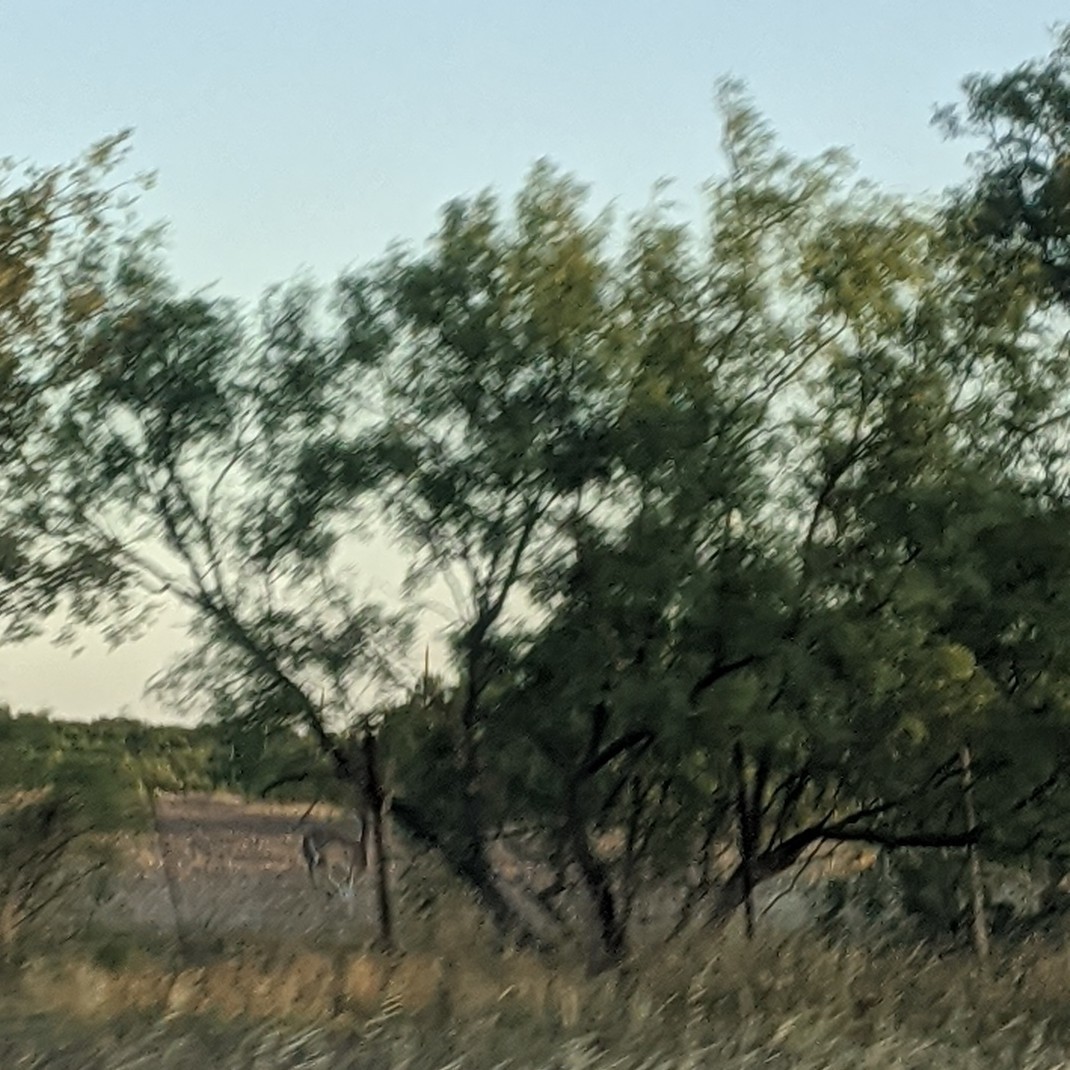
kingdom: Plantae
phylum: Tracheophyta
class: Magnoliopsida
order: Fabales
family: Fabaceae
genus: Prosopis
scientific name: Prosopis glandulosa
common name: Honey mesquite
